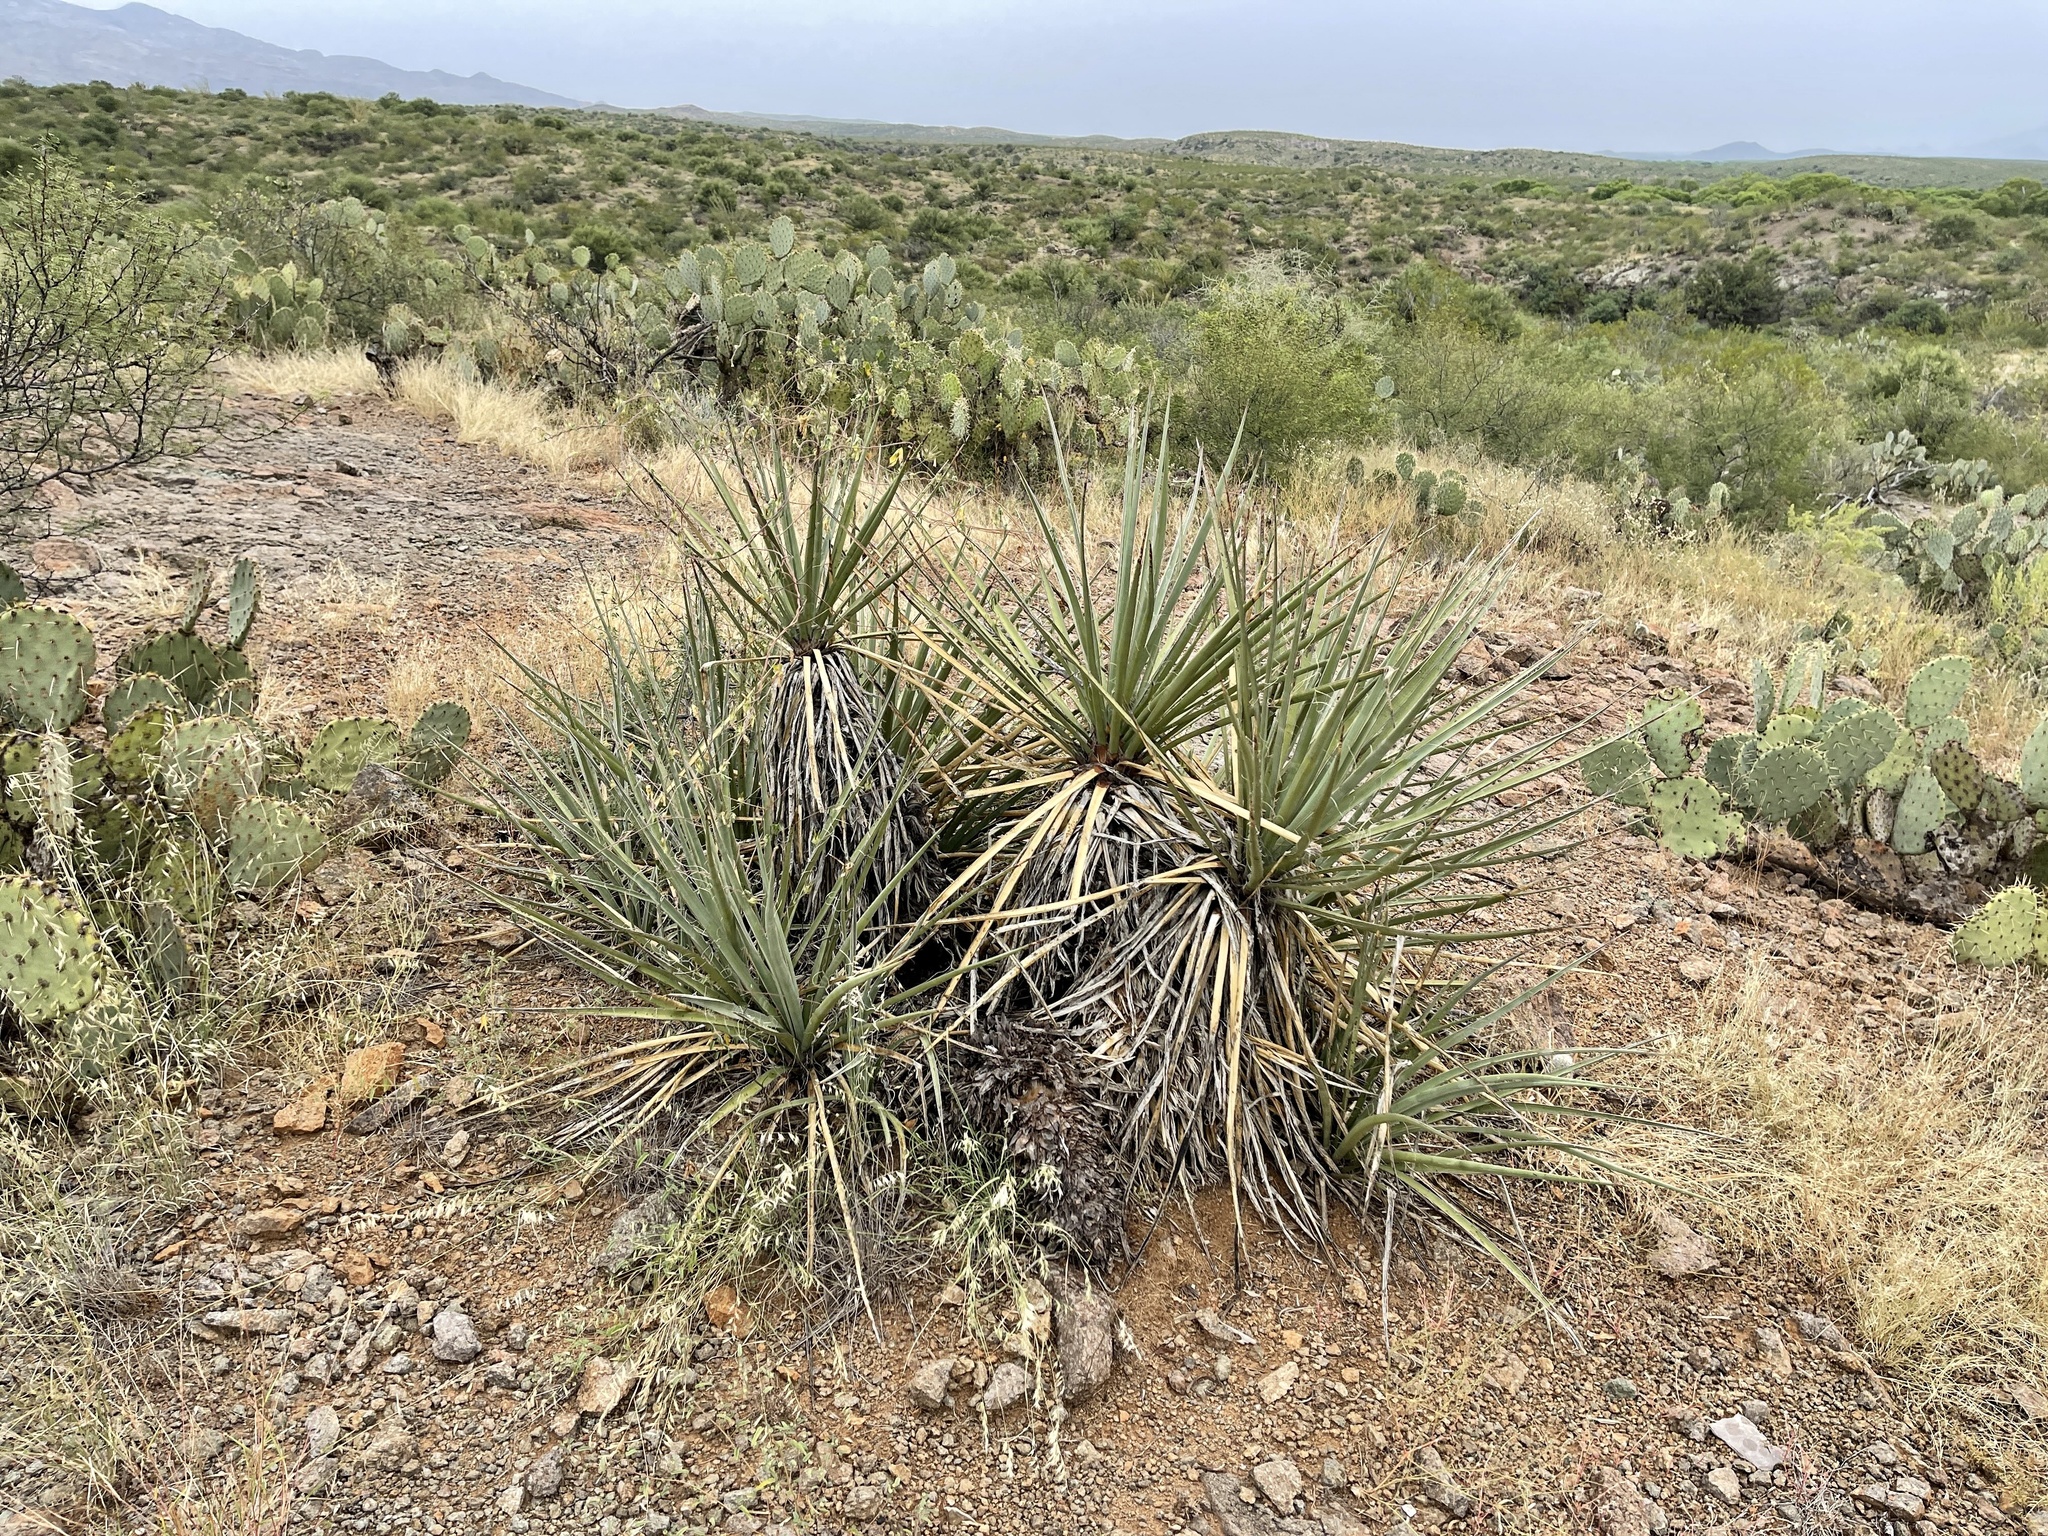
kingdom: Plantae
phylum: Tracheophyta
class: Liliopsida
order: Asparagales
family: Asparagaceae
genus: Yucca
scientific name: Yucca baccata
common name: Banana yucca
